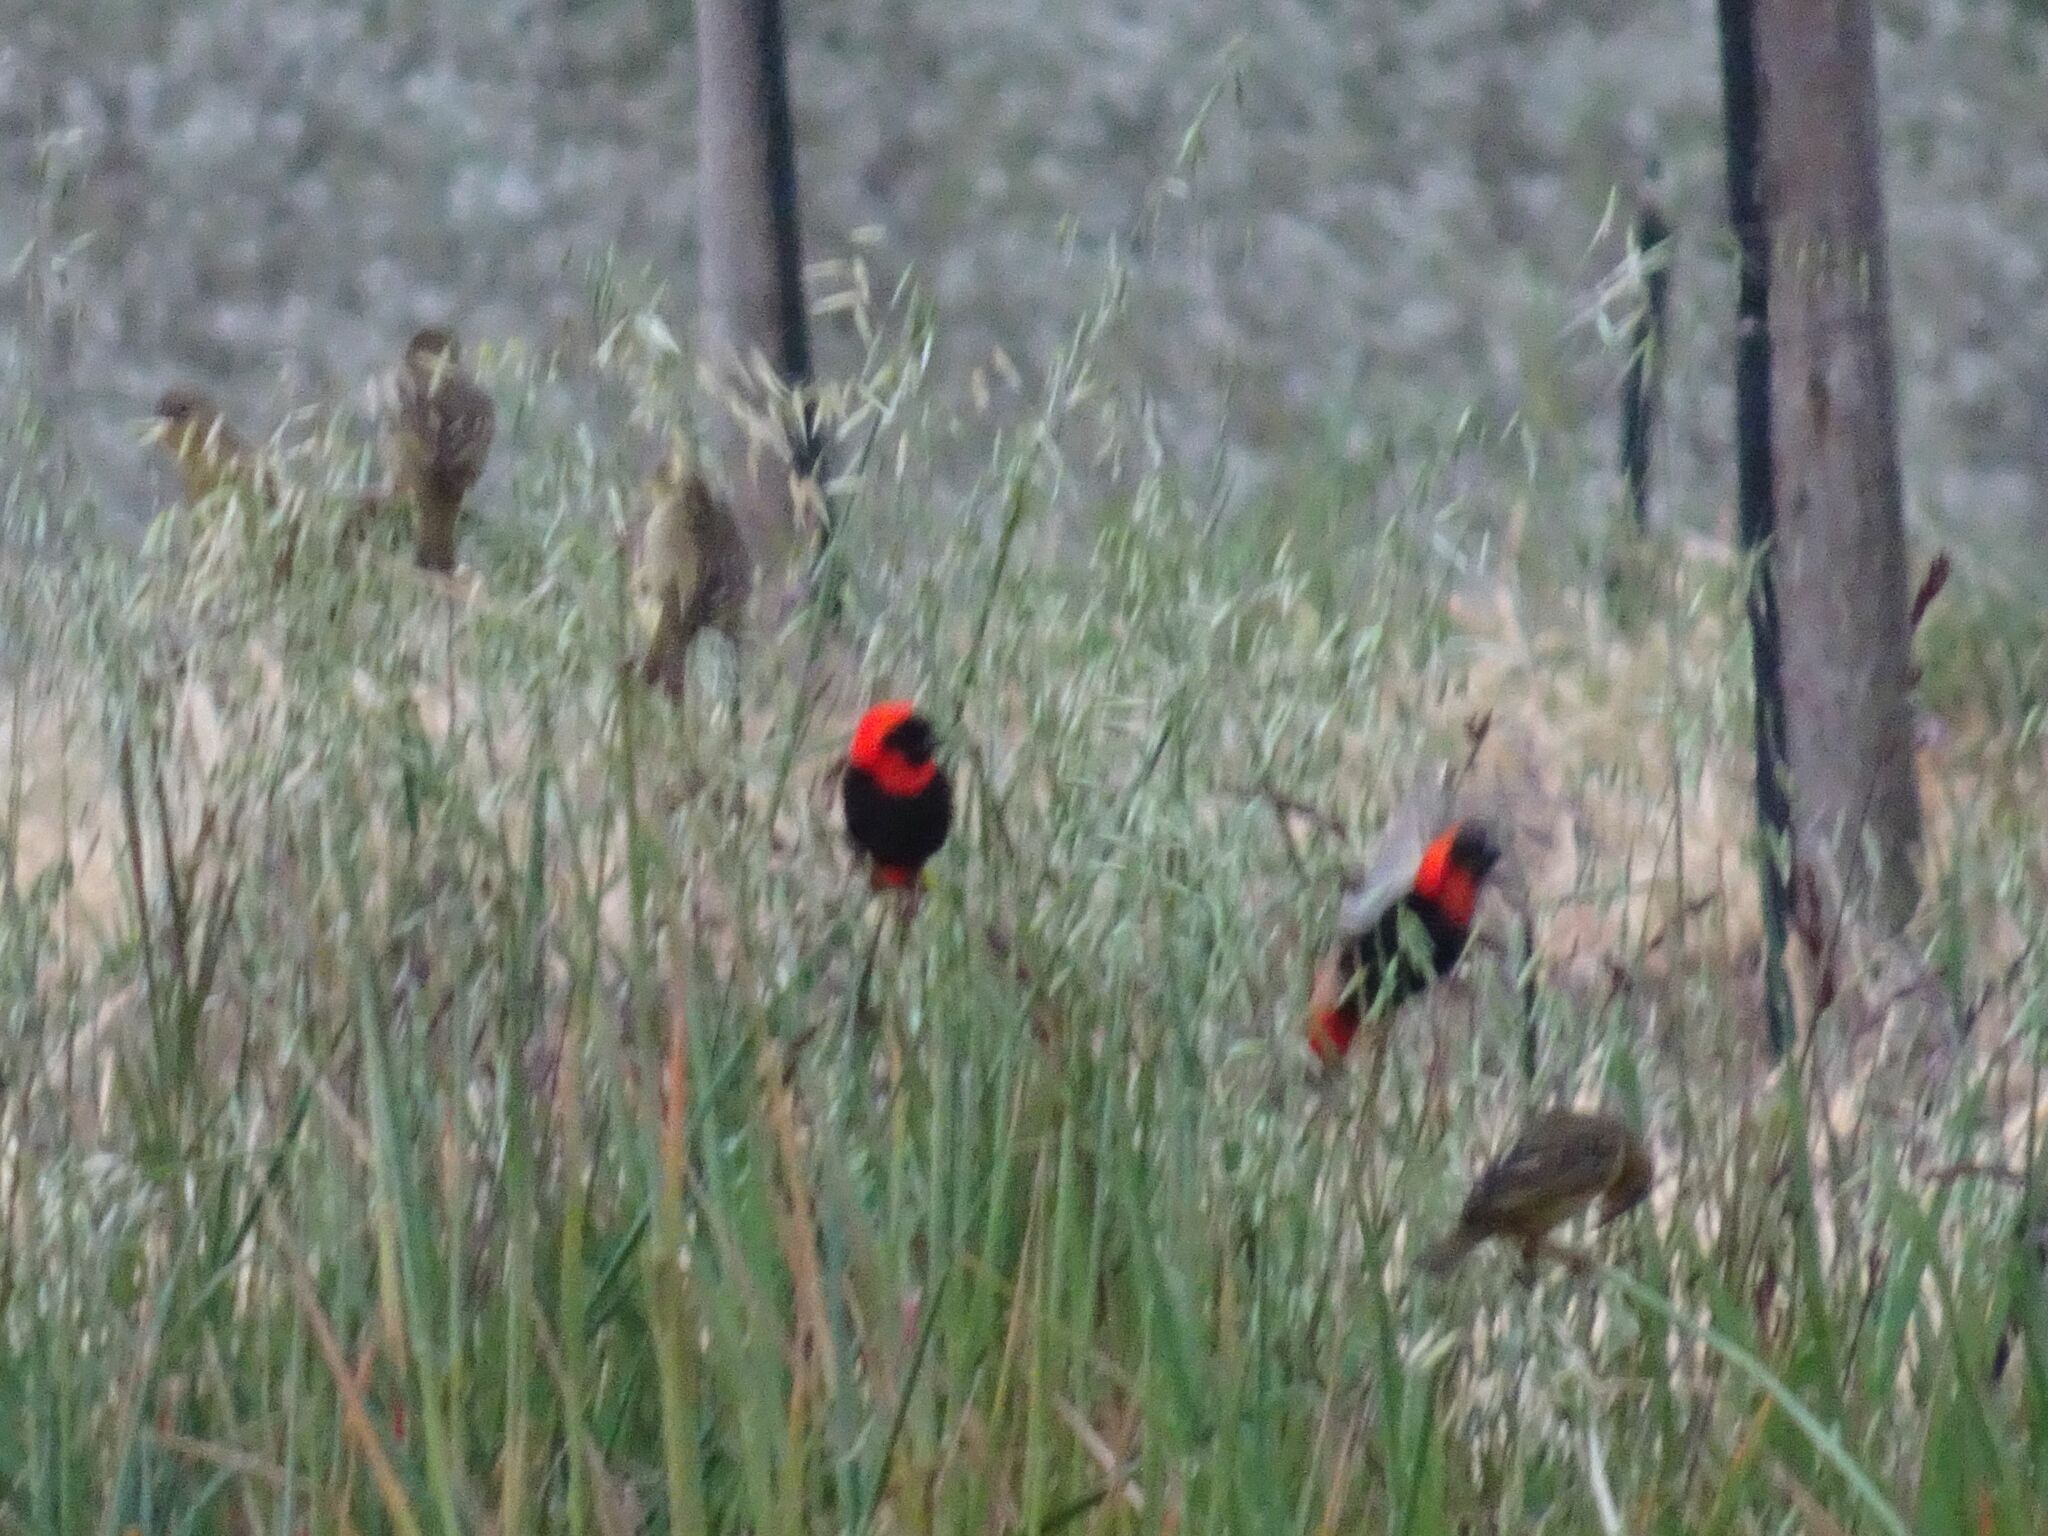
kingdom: Animalia
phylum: Chordata
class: Aves
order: Passeriformes
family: Ploceidae
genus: Euplectes
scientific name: Euplectes orix
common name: Southern red bishop
